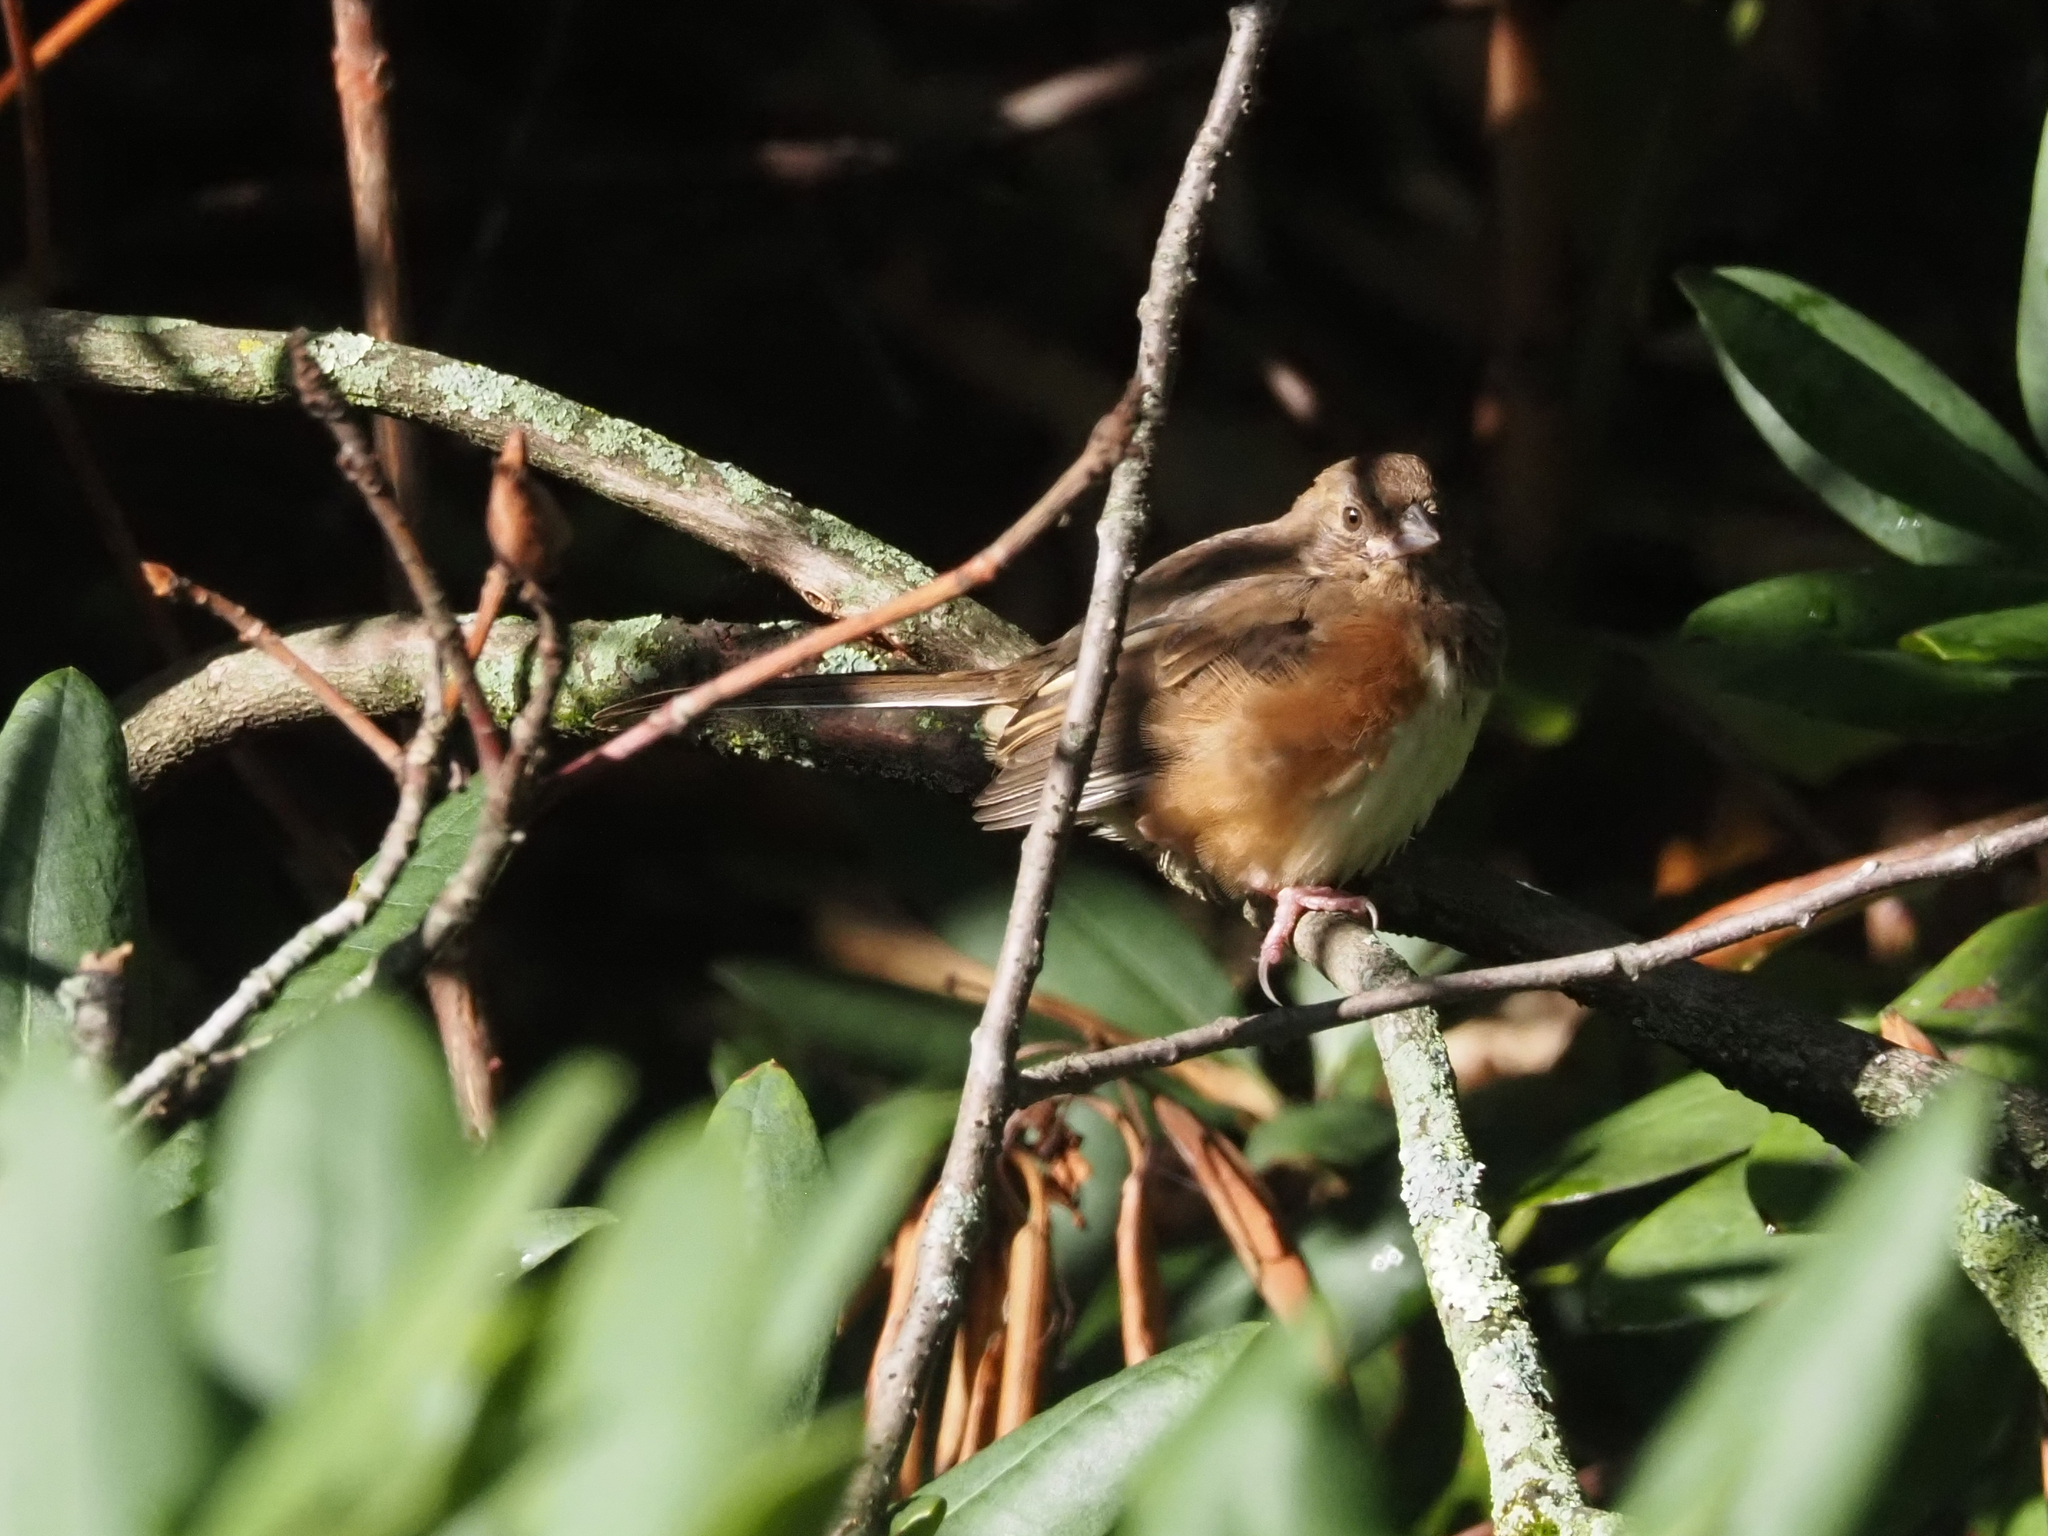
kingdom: Animalia
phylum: Chordata
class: Aves
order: Passeriformes
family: Passerellidae
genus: Pipilo
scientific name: Pipilo erythrophthalmus
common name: Eastern towhee
